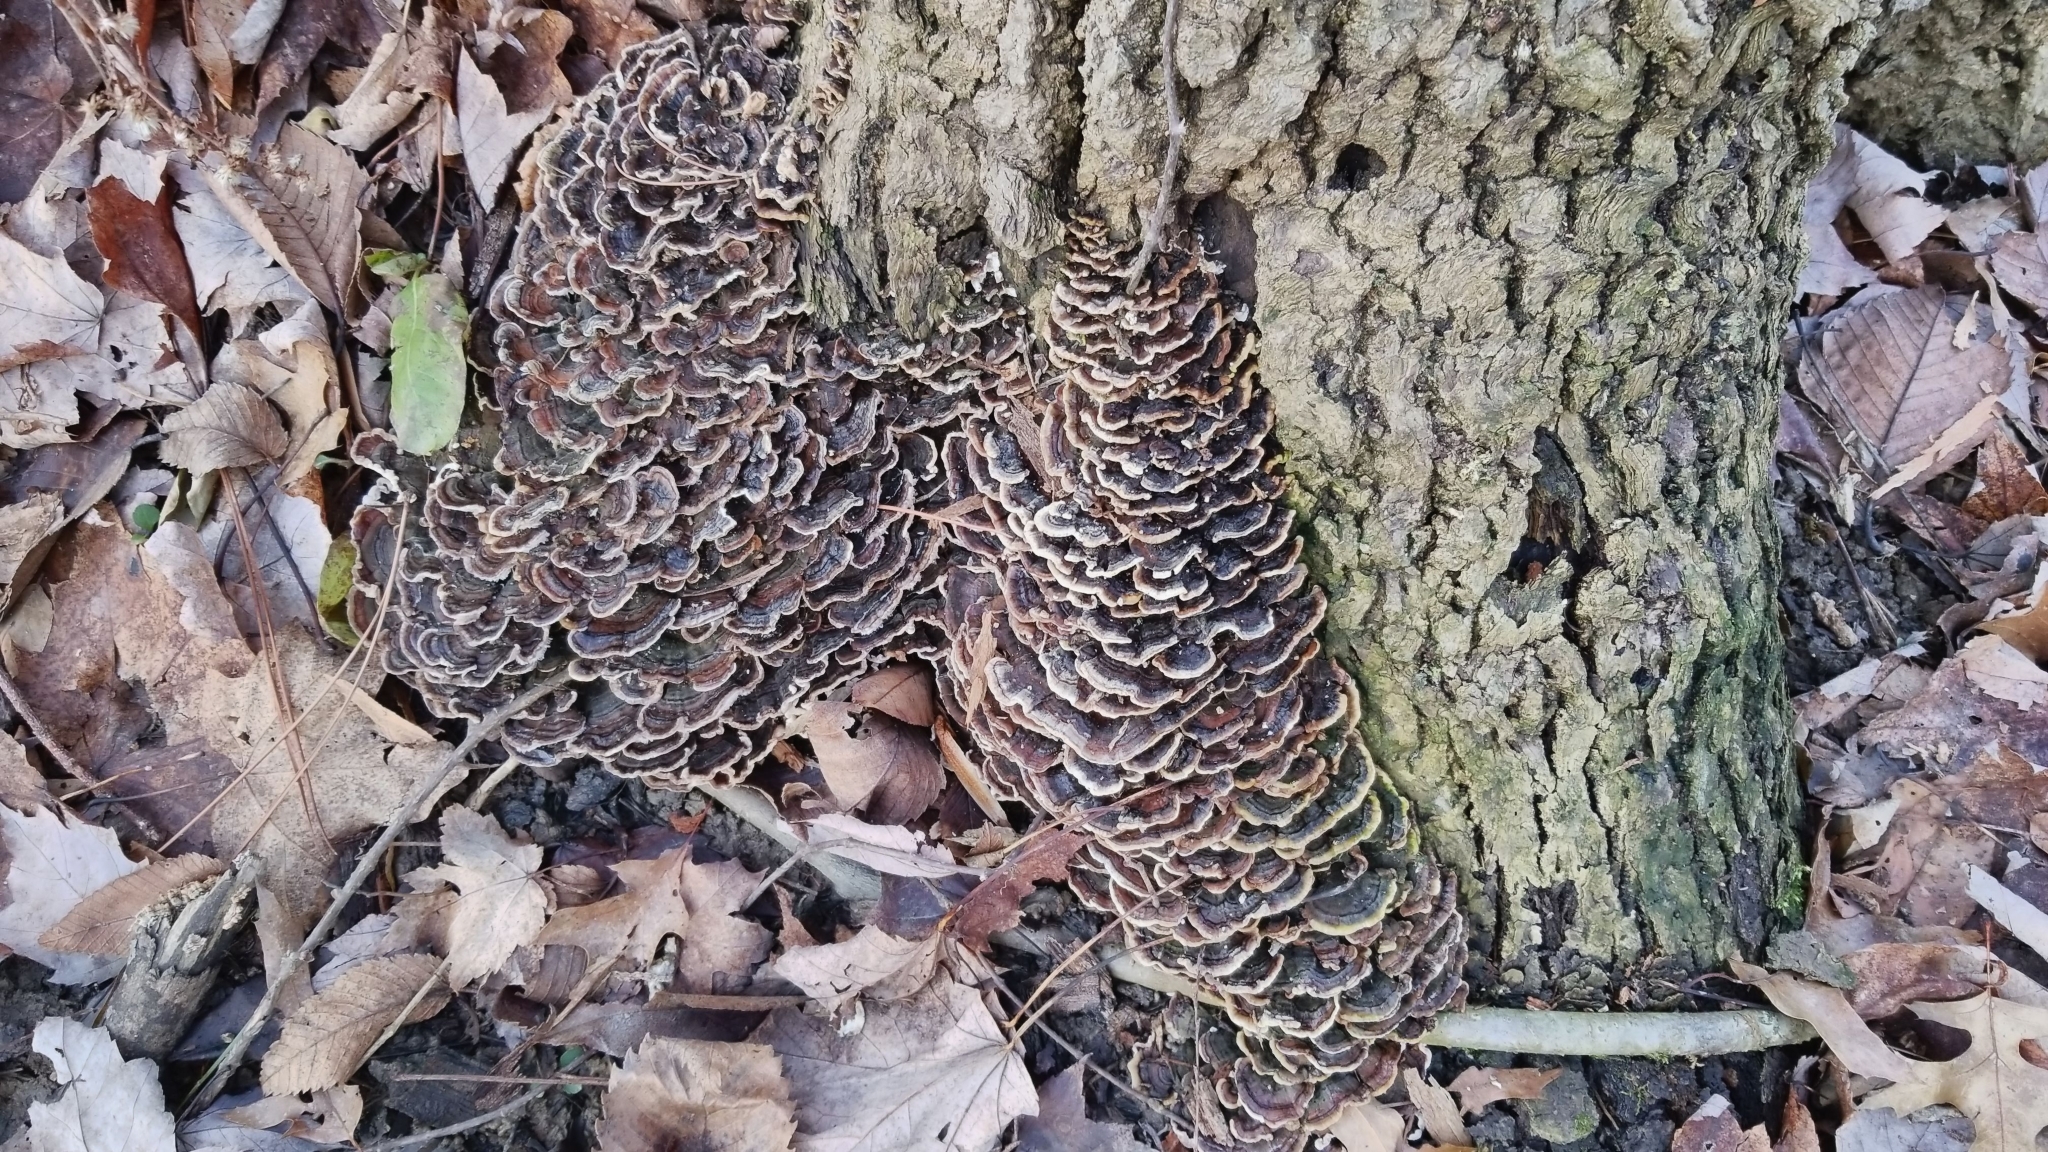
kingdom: Fungi
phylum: Basidiomycota
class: Agaricomycetes
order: Polyporales
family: Polyporaceae
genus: Trametes
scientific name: Trametes versicolor
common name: Turkeytail
